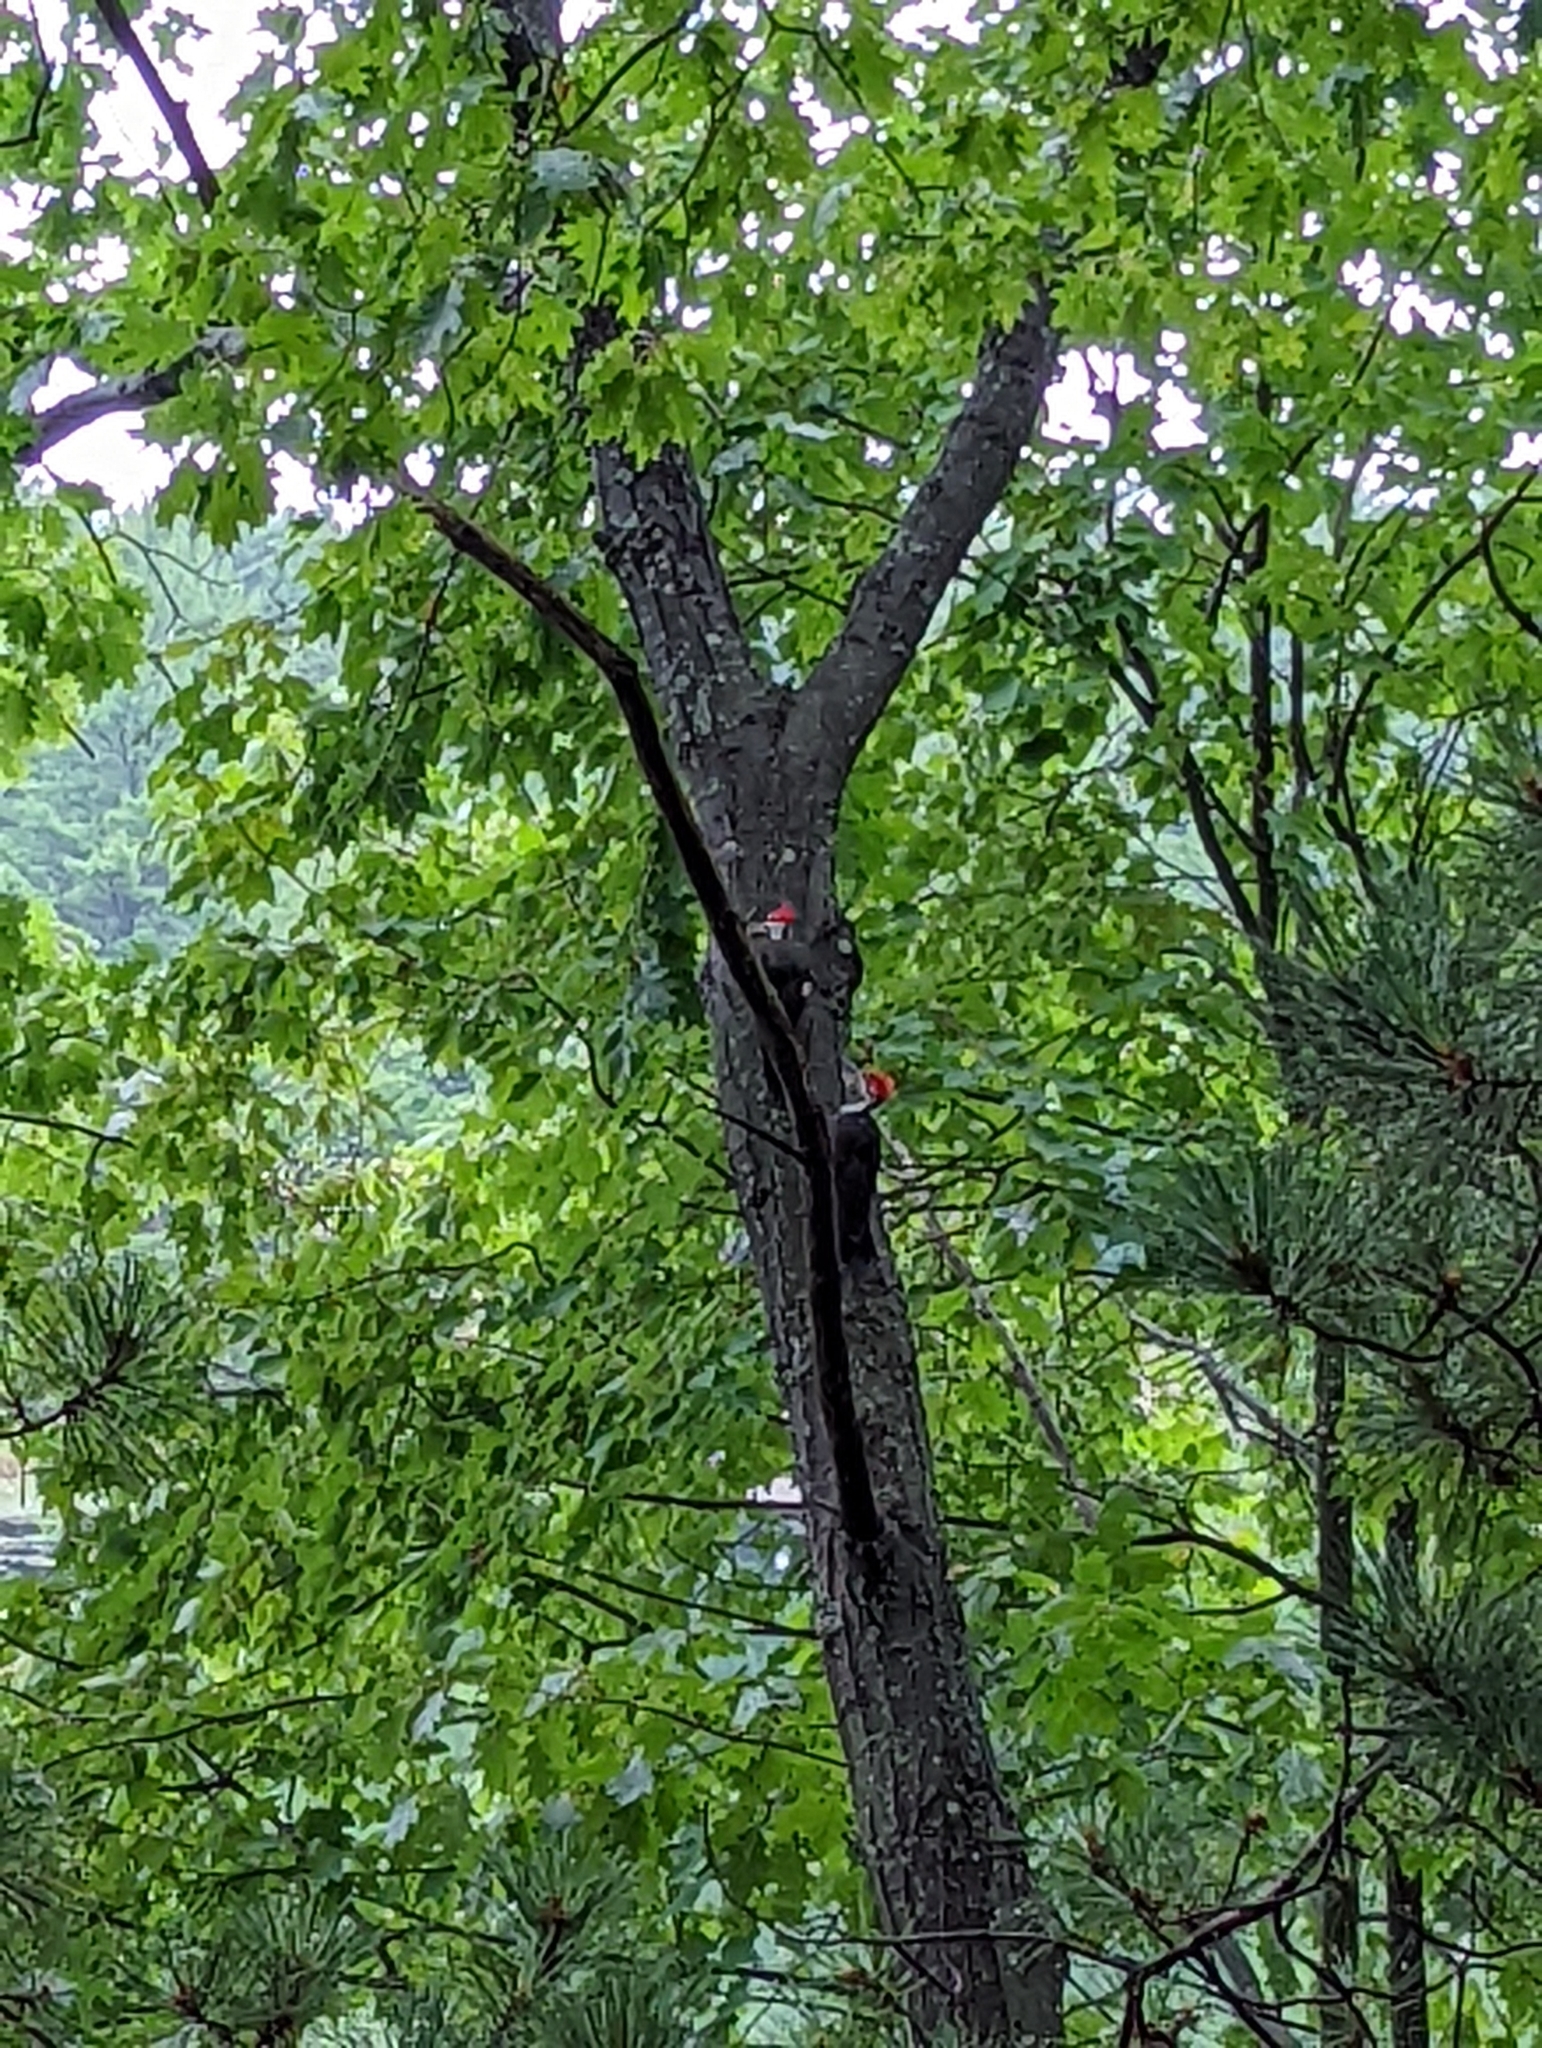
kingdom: Animalia
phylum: Chordata
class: Aves
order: Piciformes
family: Picidae
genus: Dryocopus
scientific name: Dryocopus pileatus
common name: Pileated woodpecker
